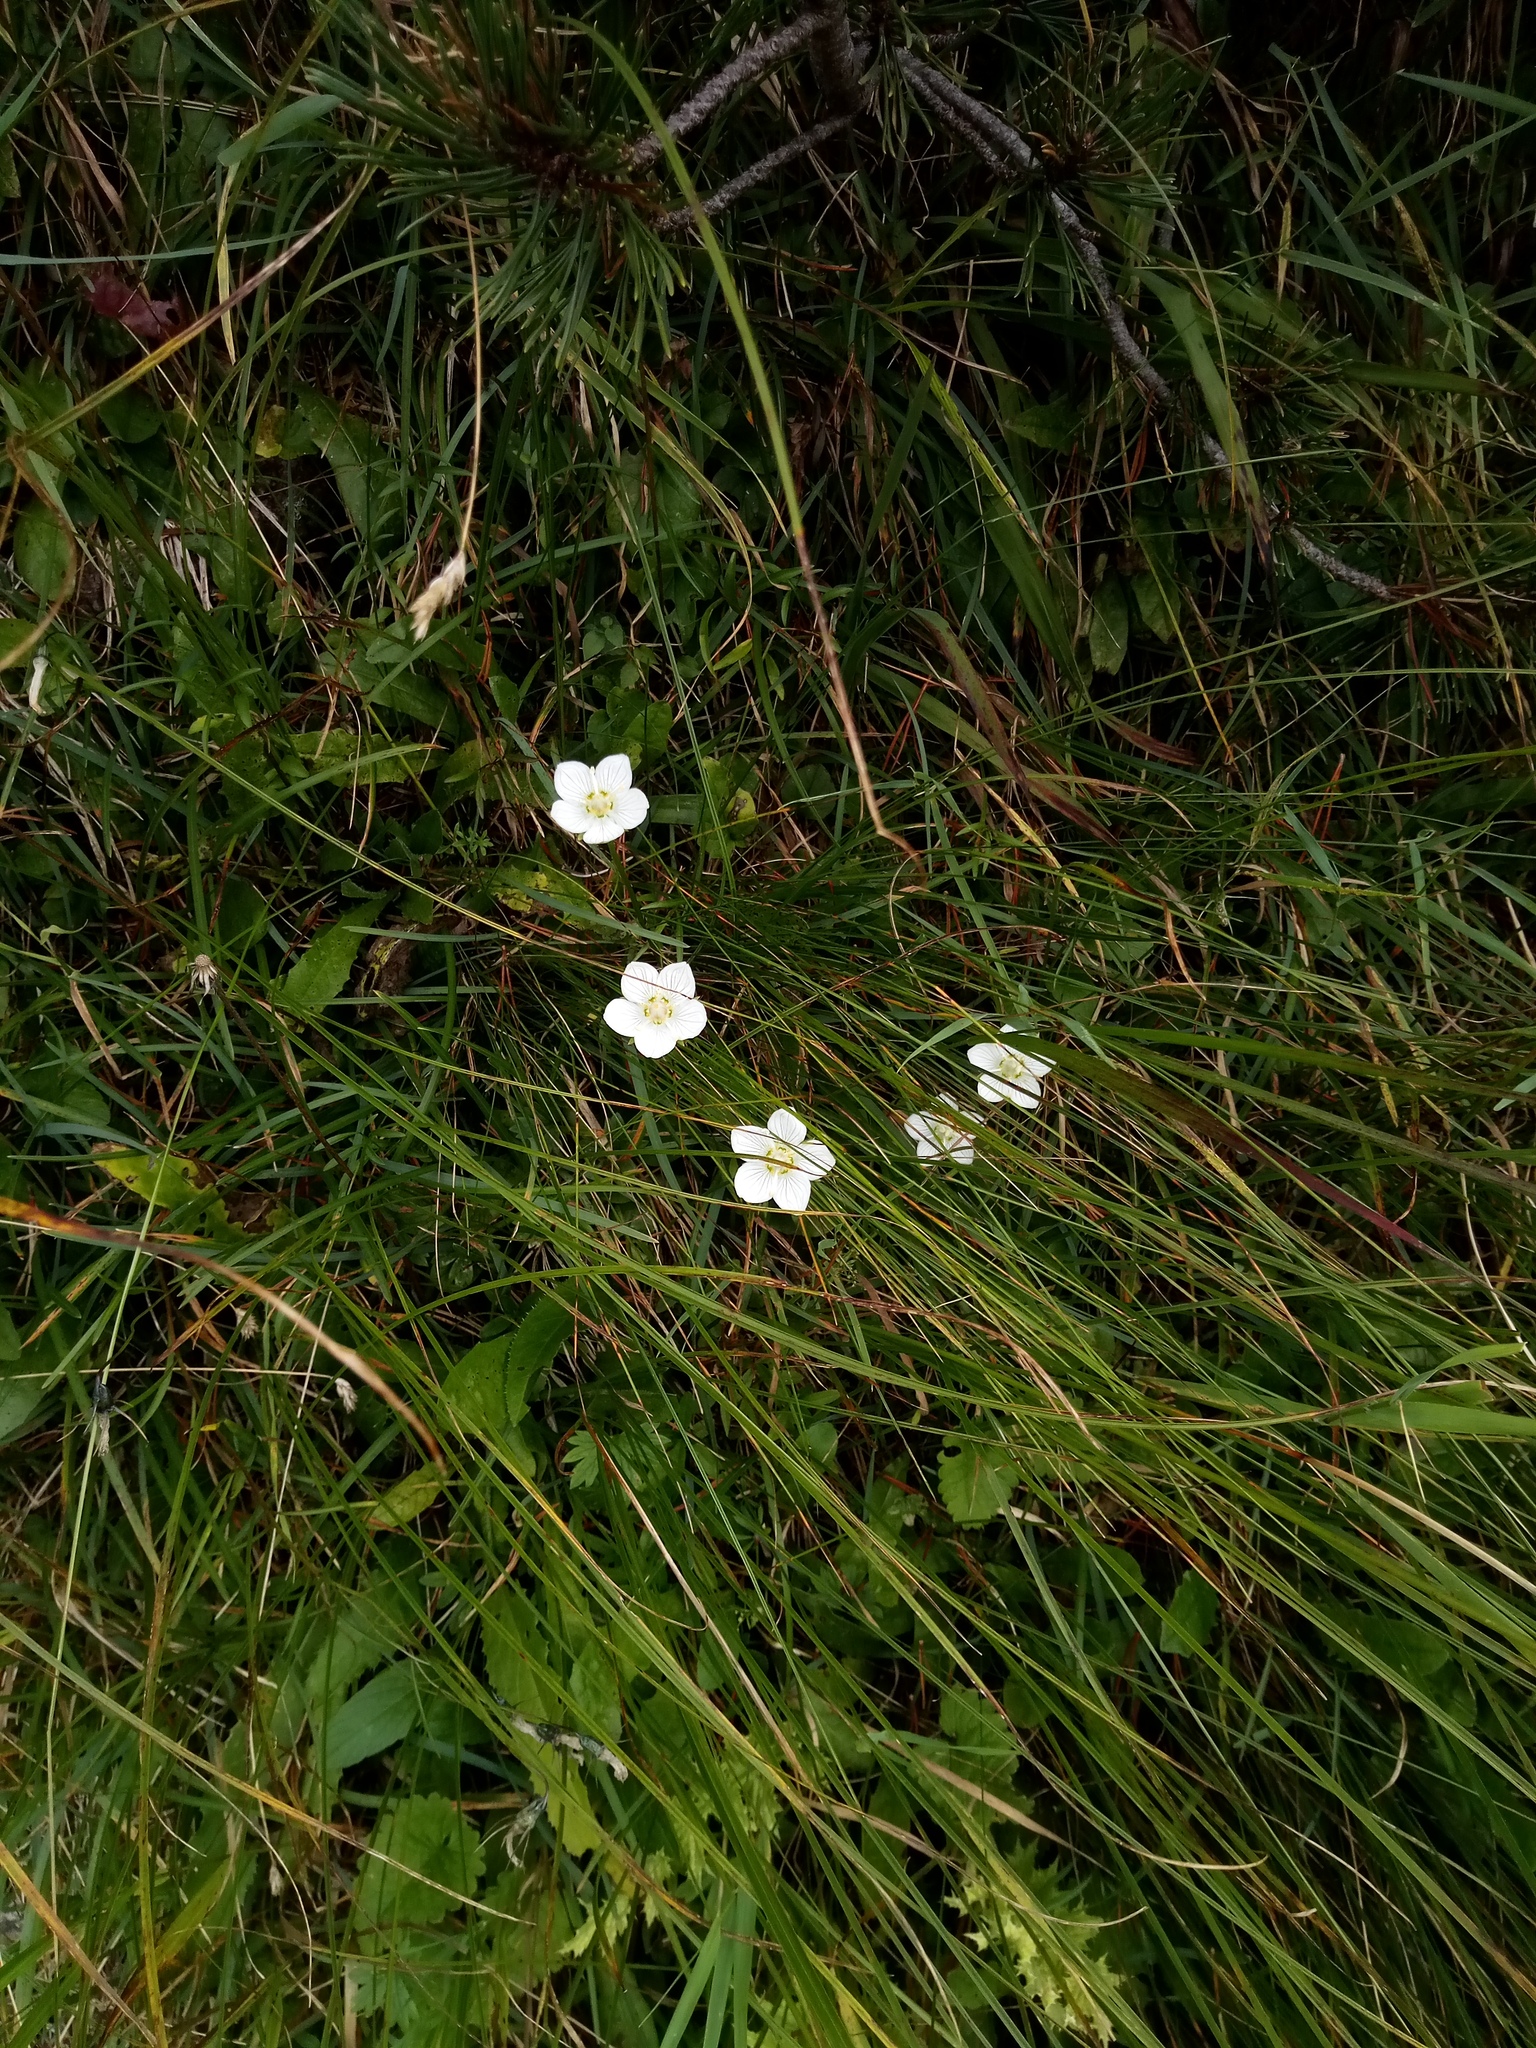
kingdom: Plantae
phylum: Tracheophyta
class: Magnoliopsida
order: Celastrales
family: Parnassiaceae
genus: Parnassia
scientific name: Parnassia palustris
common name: Grass-of-parnassus
